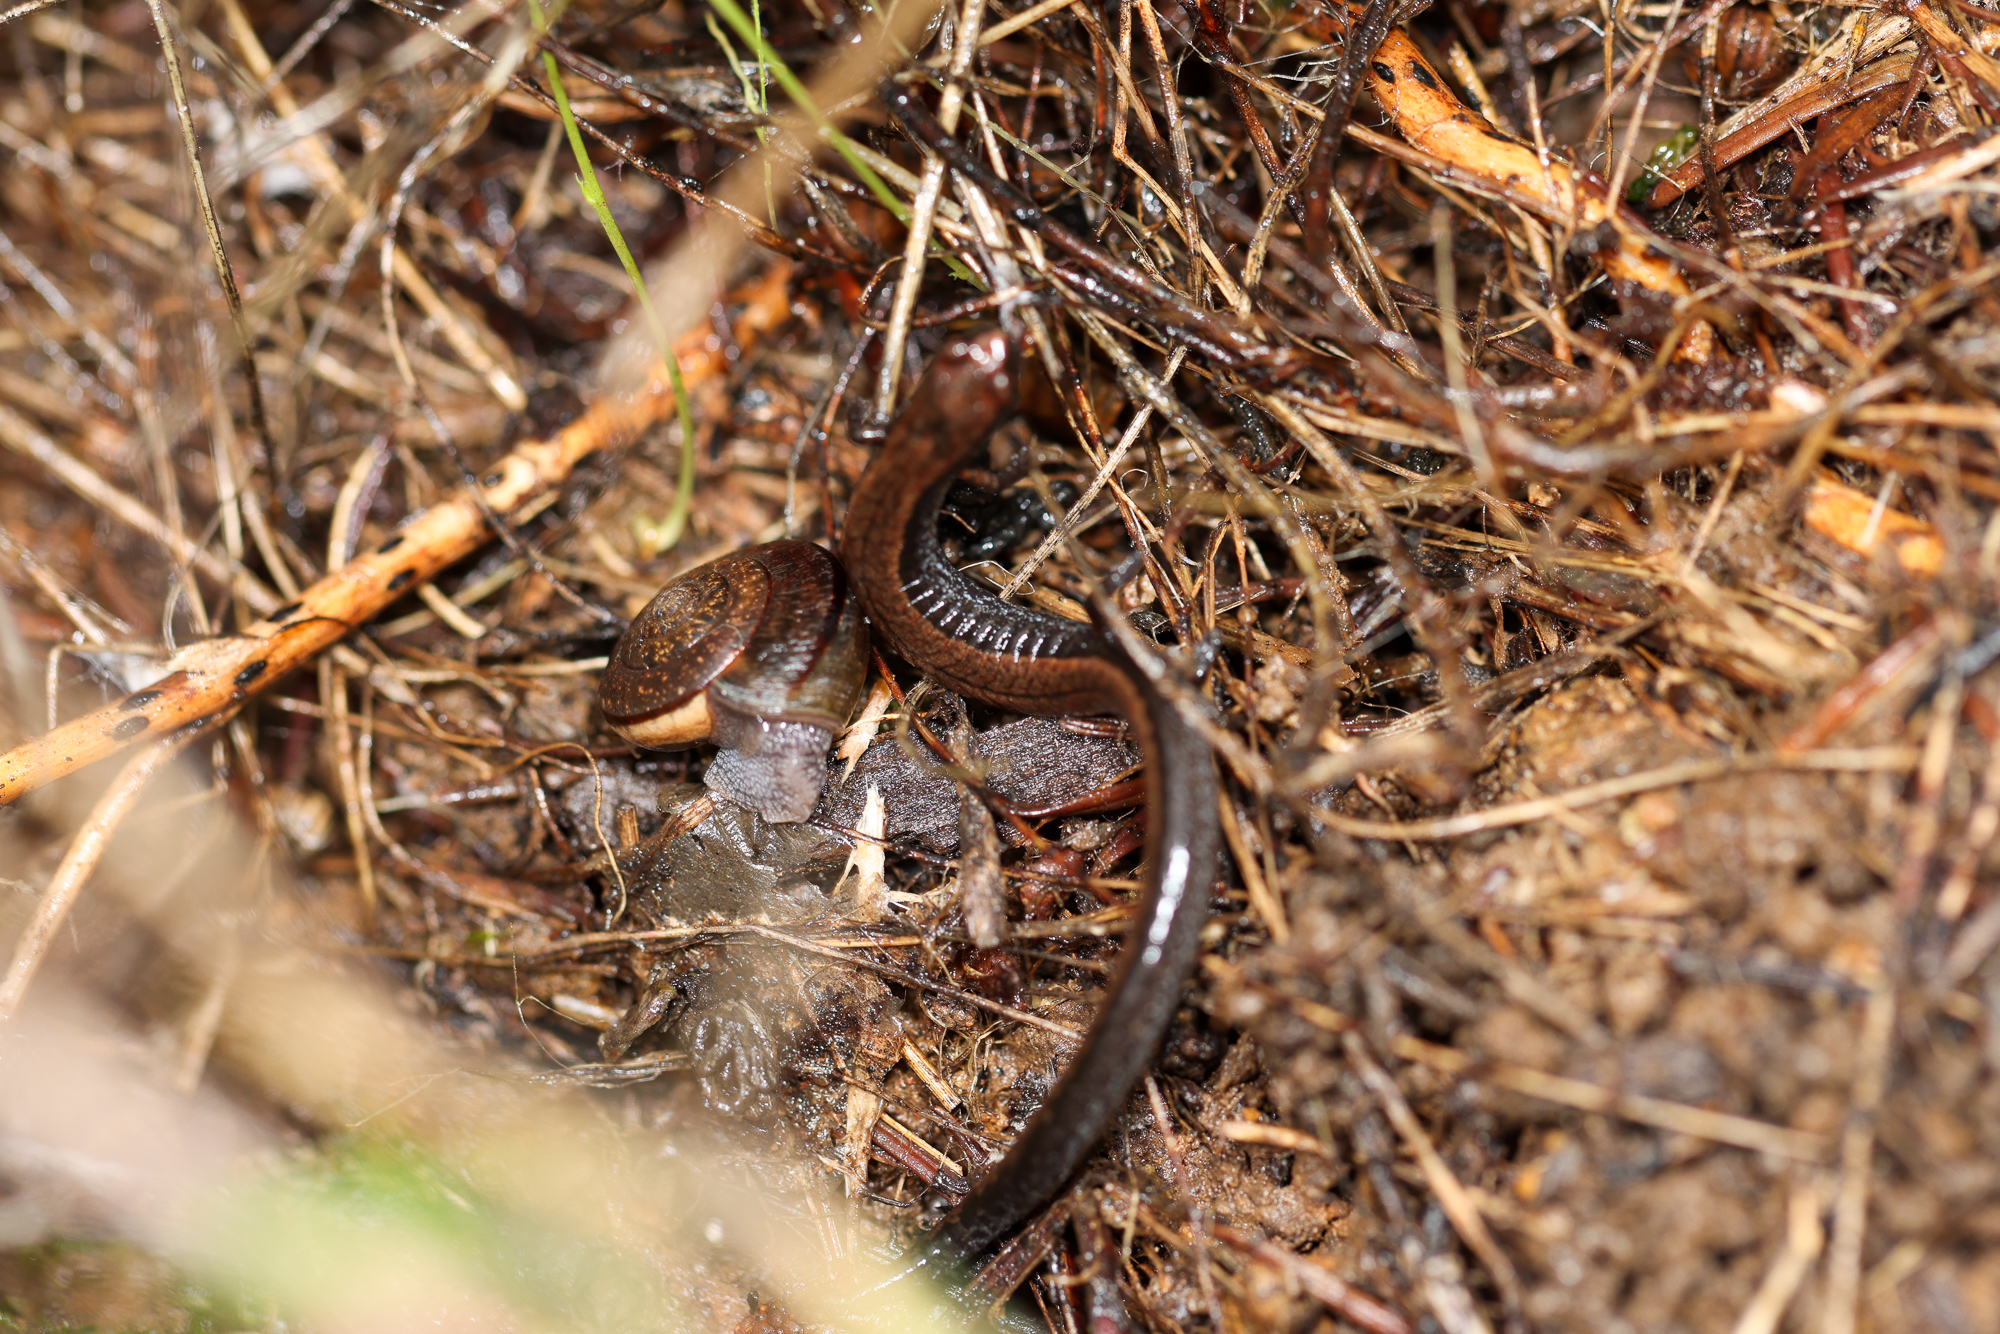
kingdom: Animalia
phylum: Chordata
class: Amphibia
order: Caudata
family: Plethodontidae
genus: Batrachoseps
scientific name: Batrachoseps attenuatus
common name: California slender salamander
